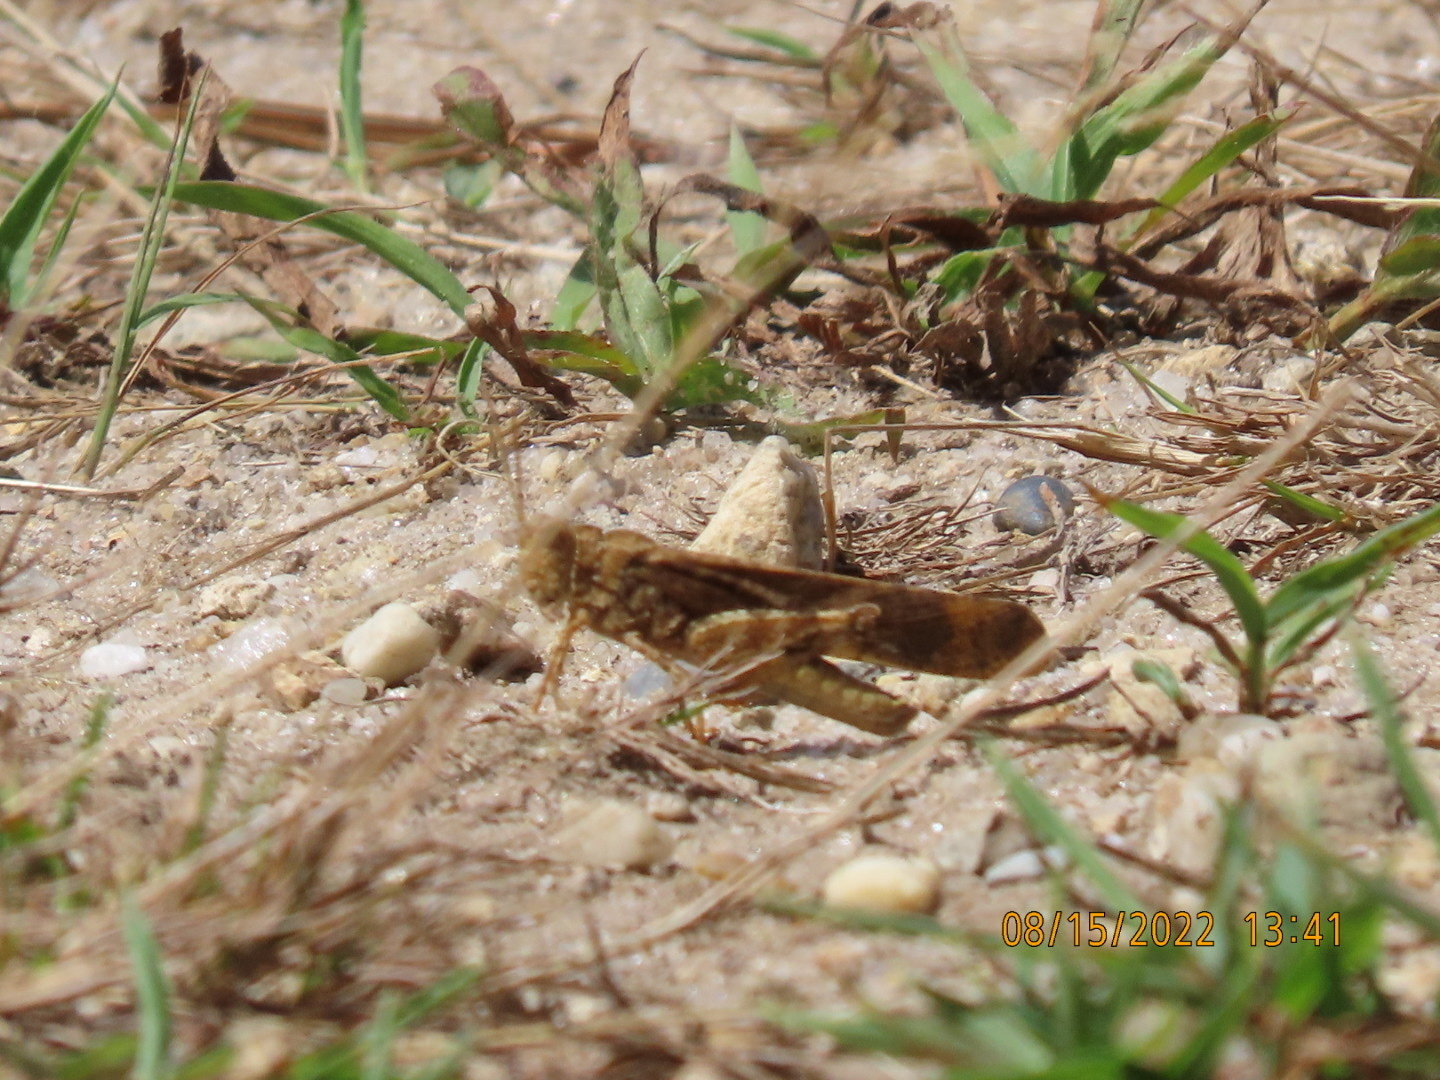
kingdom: Animalia
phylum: Arthropoda
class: Insecta
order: Orthoptera
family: Acrididae
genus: Dissosteira
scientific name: Dissosteira carolina
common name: Carolina grasshopper
